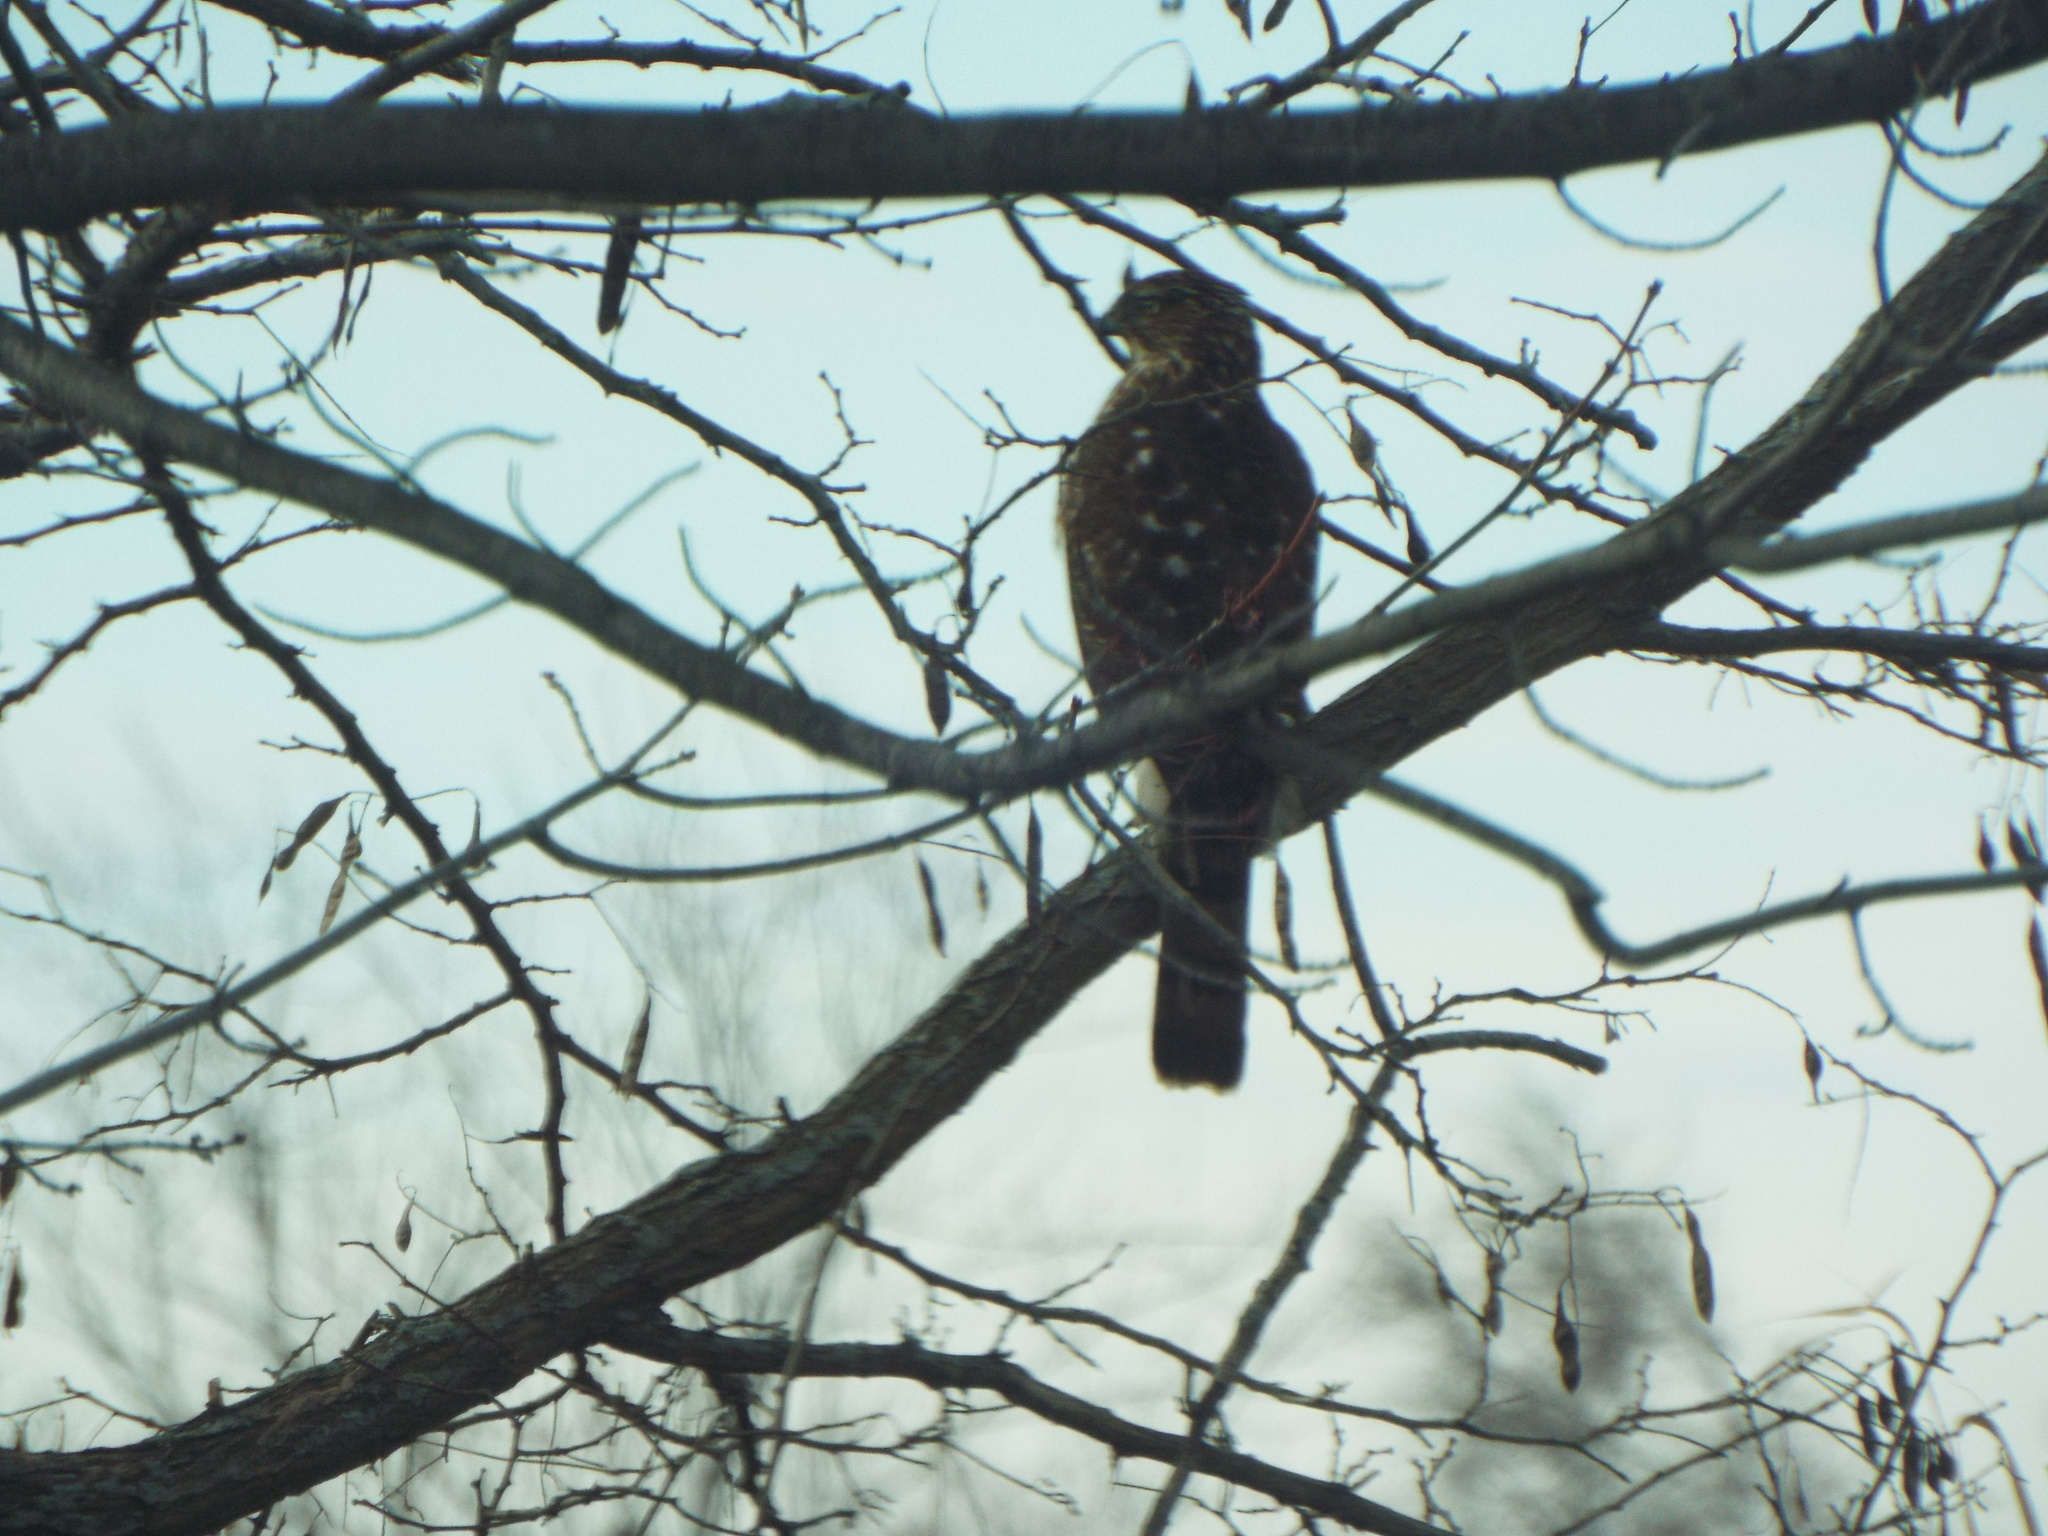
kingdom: Animalia
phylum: Chordata
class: Aves
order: Accipitriformes
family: Accipitridae
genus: Accipiter
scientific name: Accipiter cooperii
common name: Cooper's hawk
